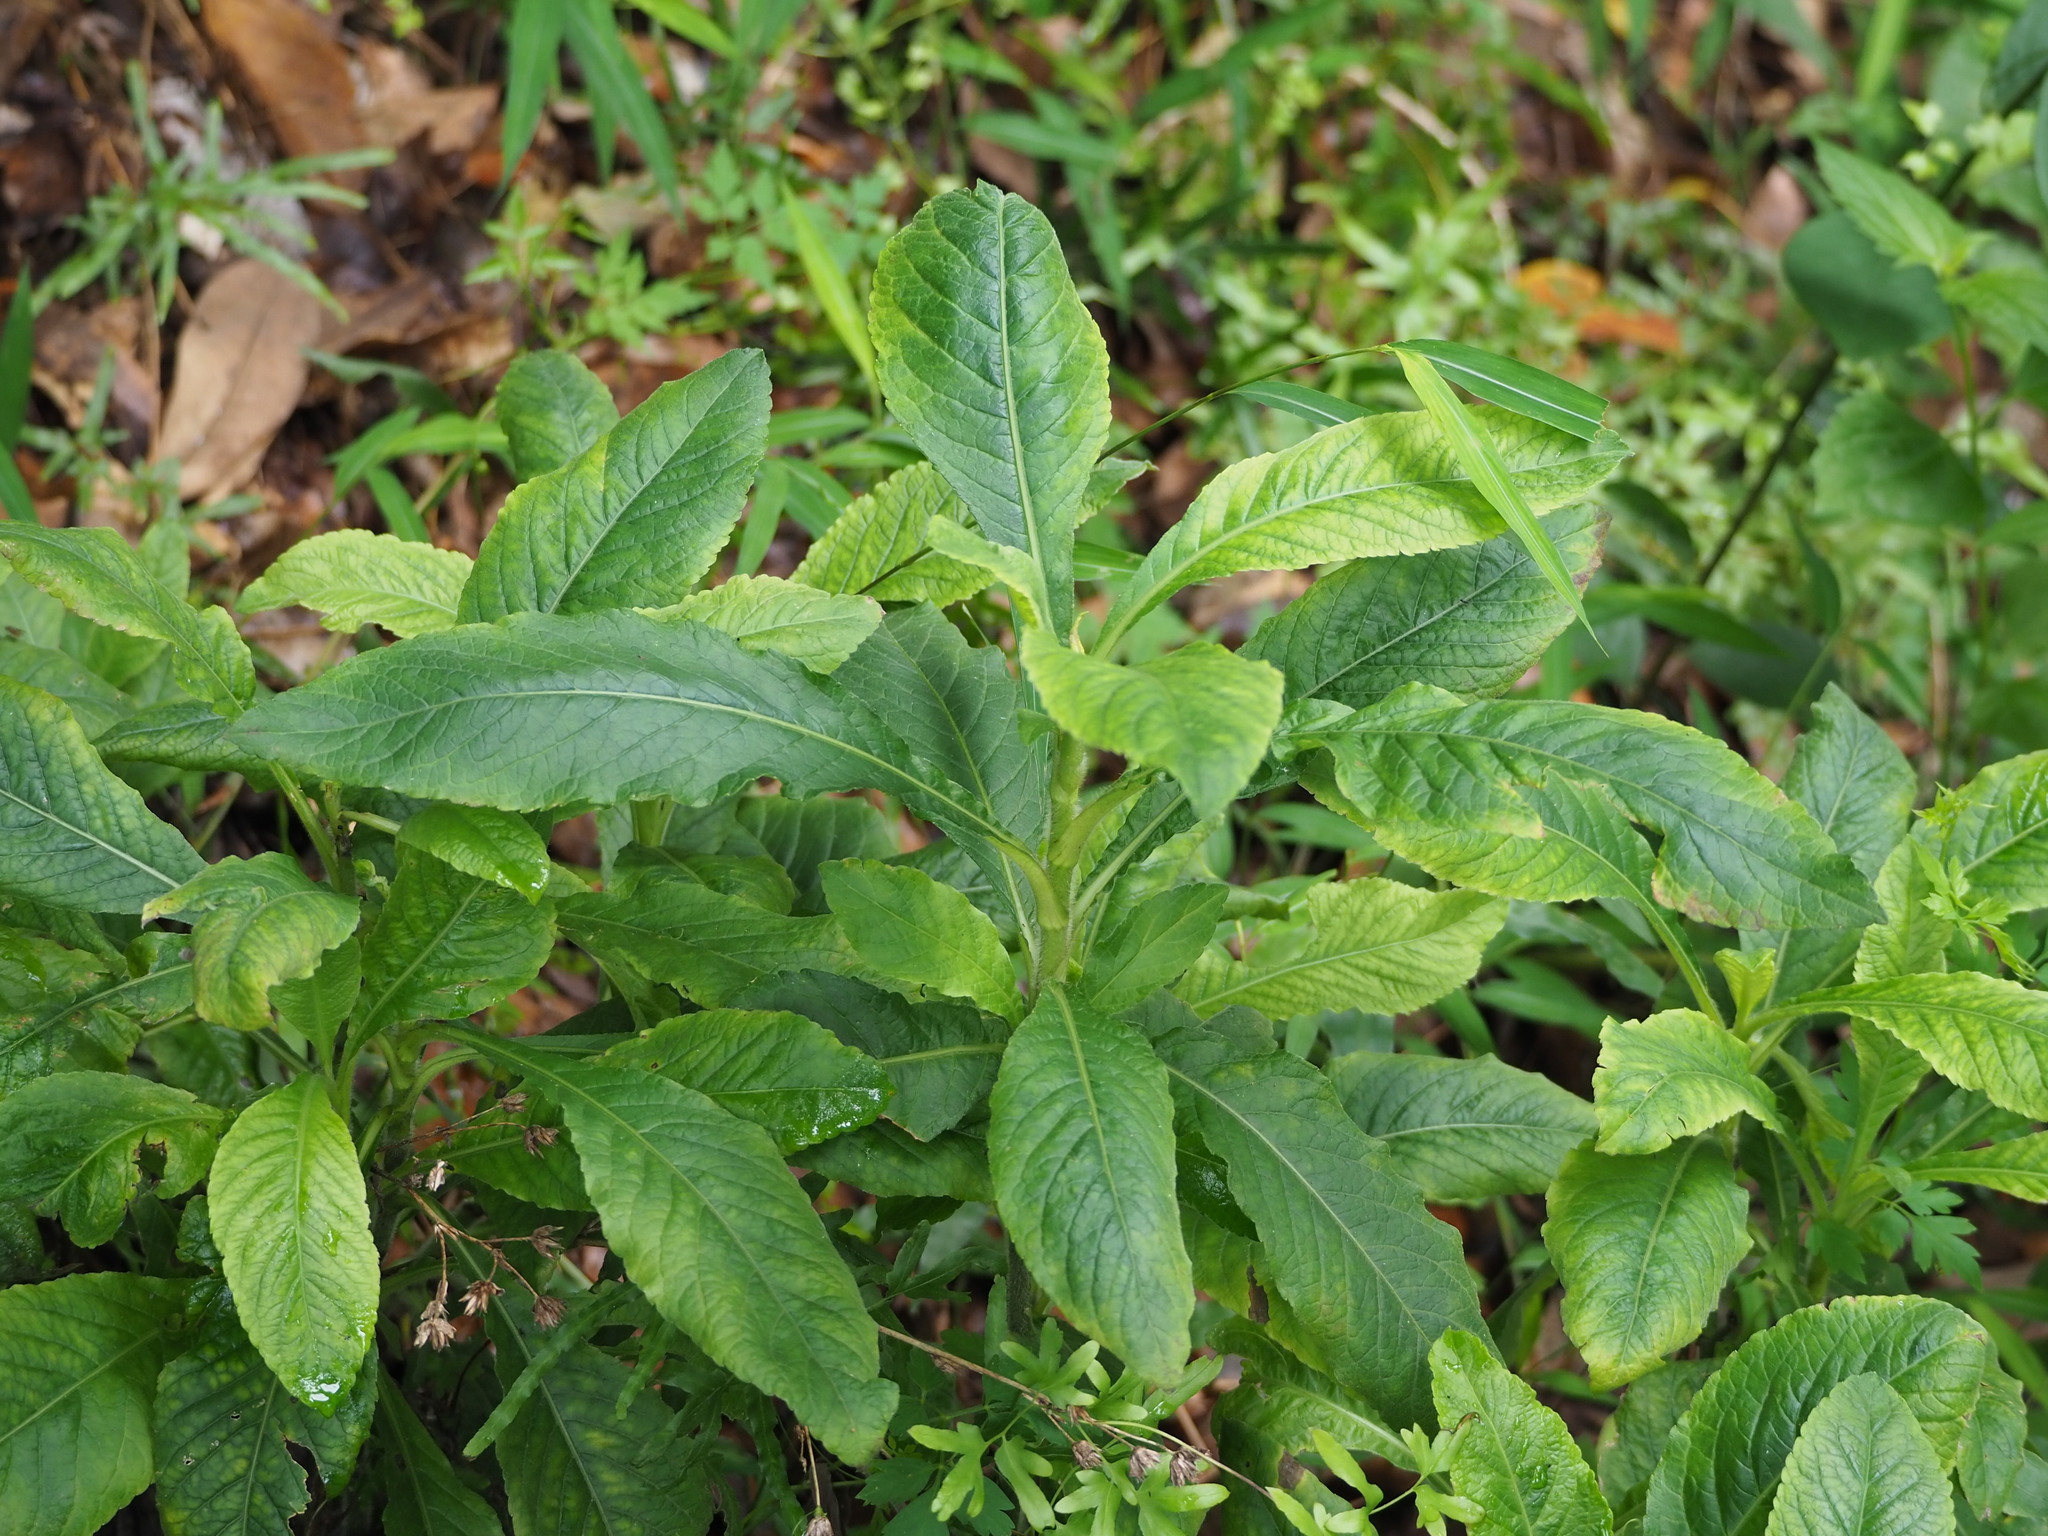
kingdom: Plantae
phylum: Tracheophyta
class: Magnoliopsida
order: Asterales
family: Asteraceae
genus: Elephantopus
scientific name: Elephantopus mollis
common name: Soft elephantsfoot
